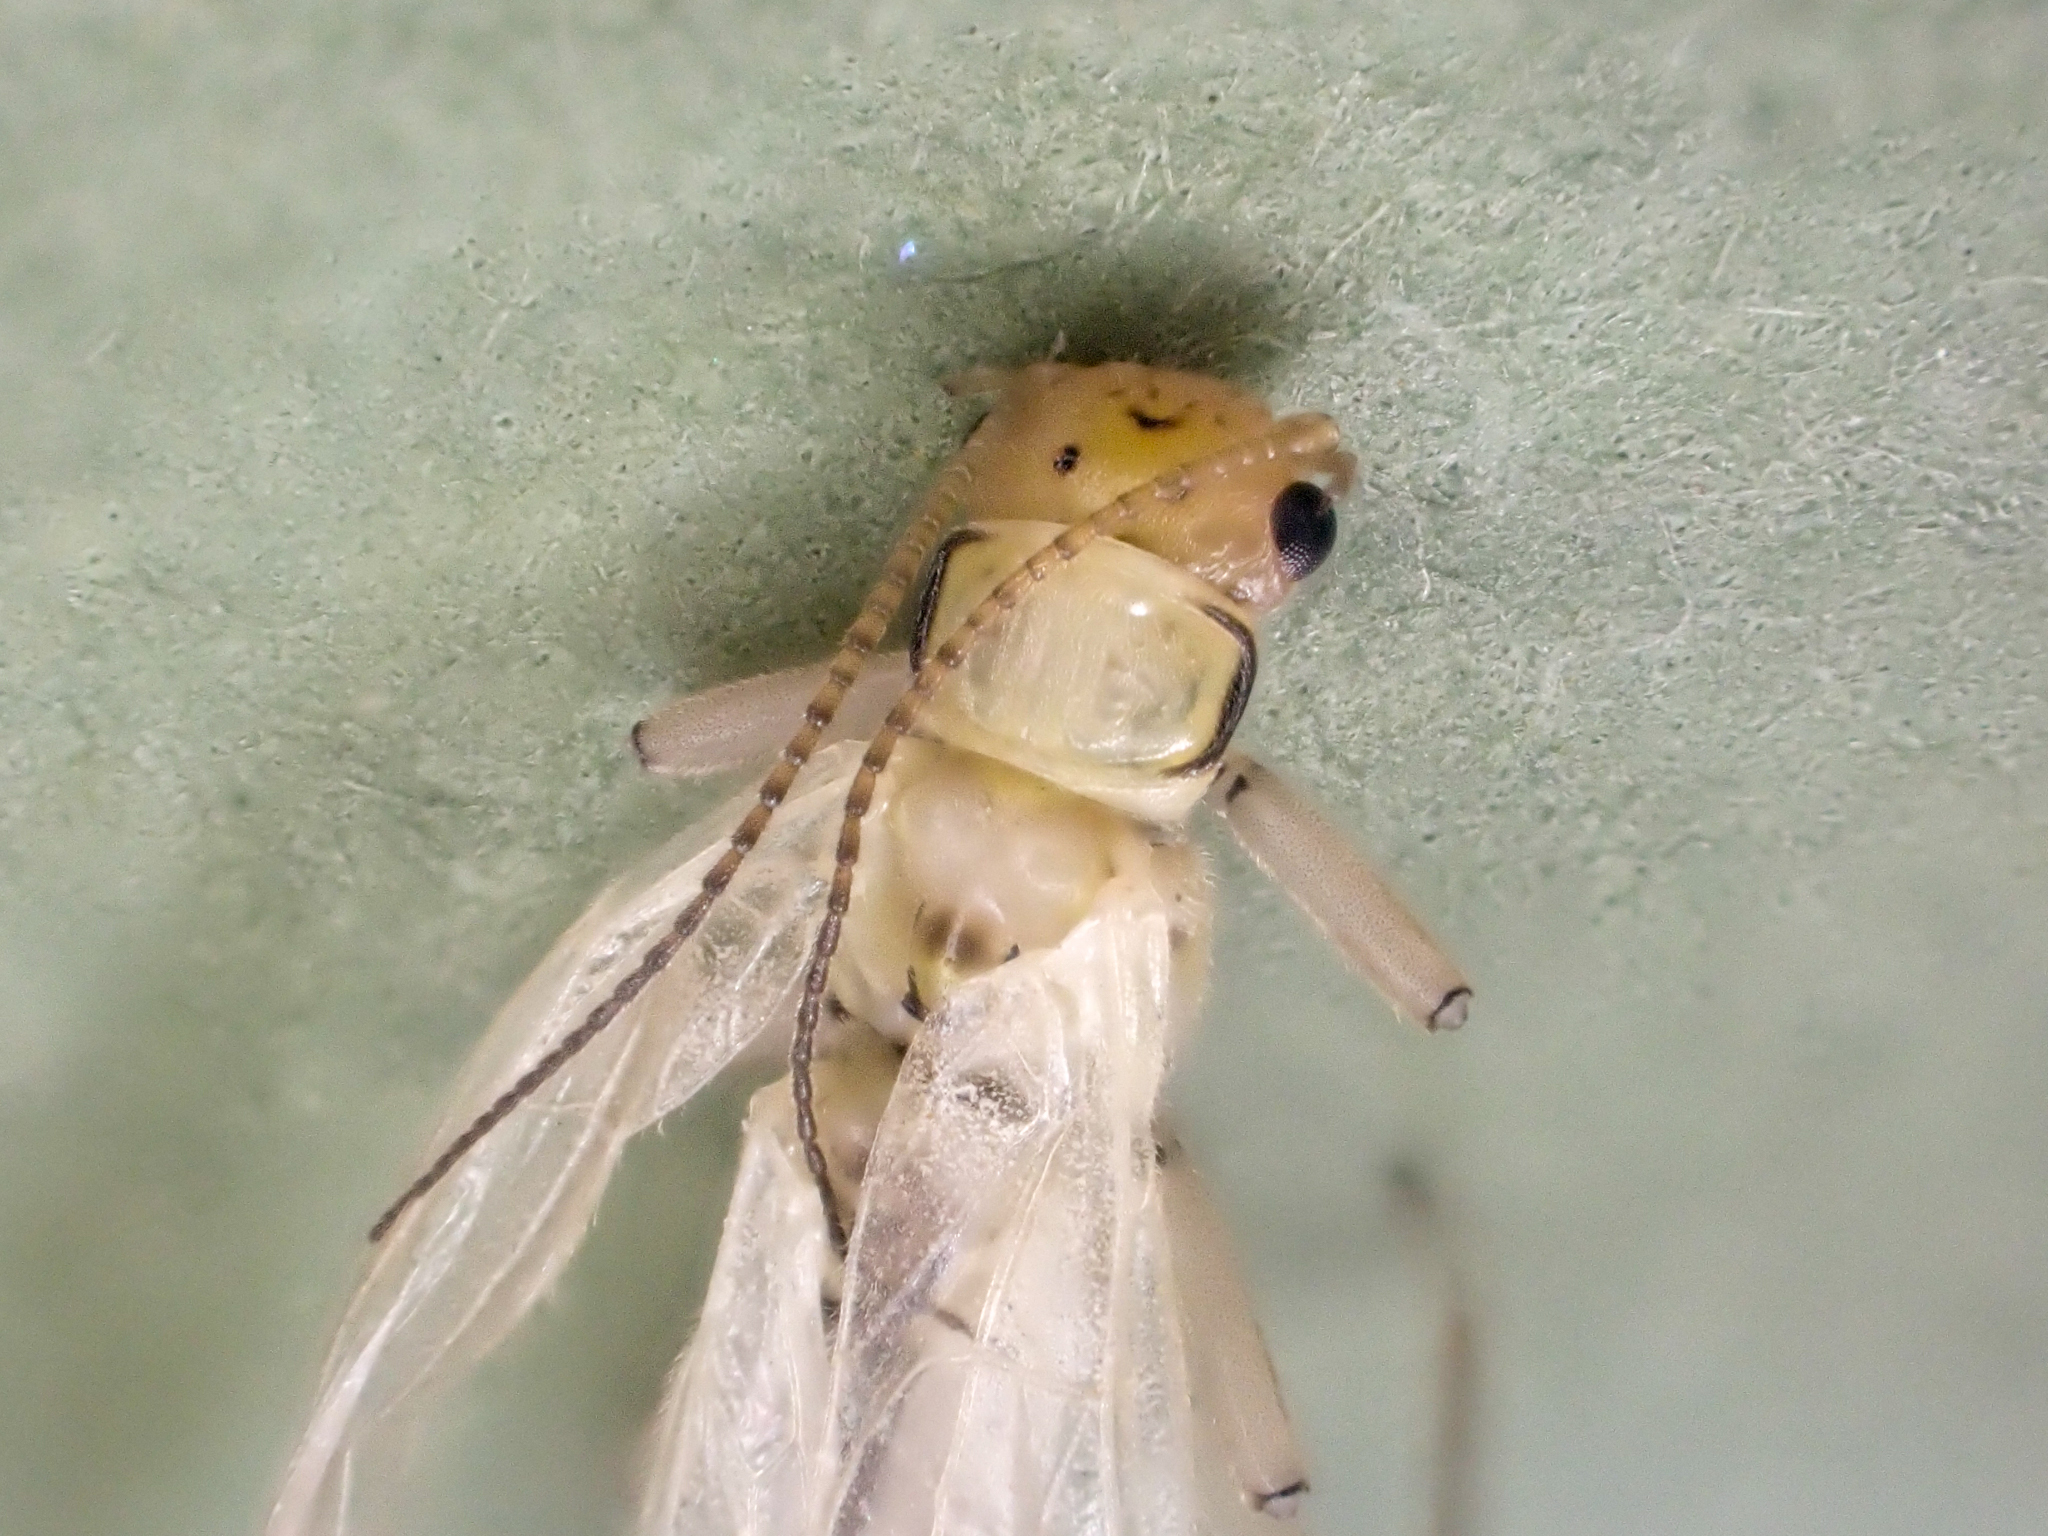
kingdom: Animalia
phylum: Arthropoda
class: Insecta
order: Plecoptera
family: Chloroperlidae
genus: Sweltsa
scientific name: Sweltsa fidelis
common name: Mountain sallfly
